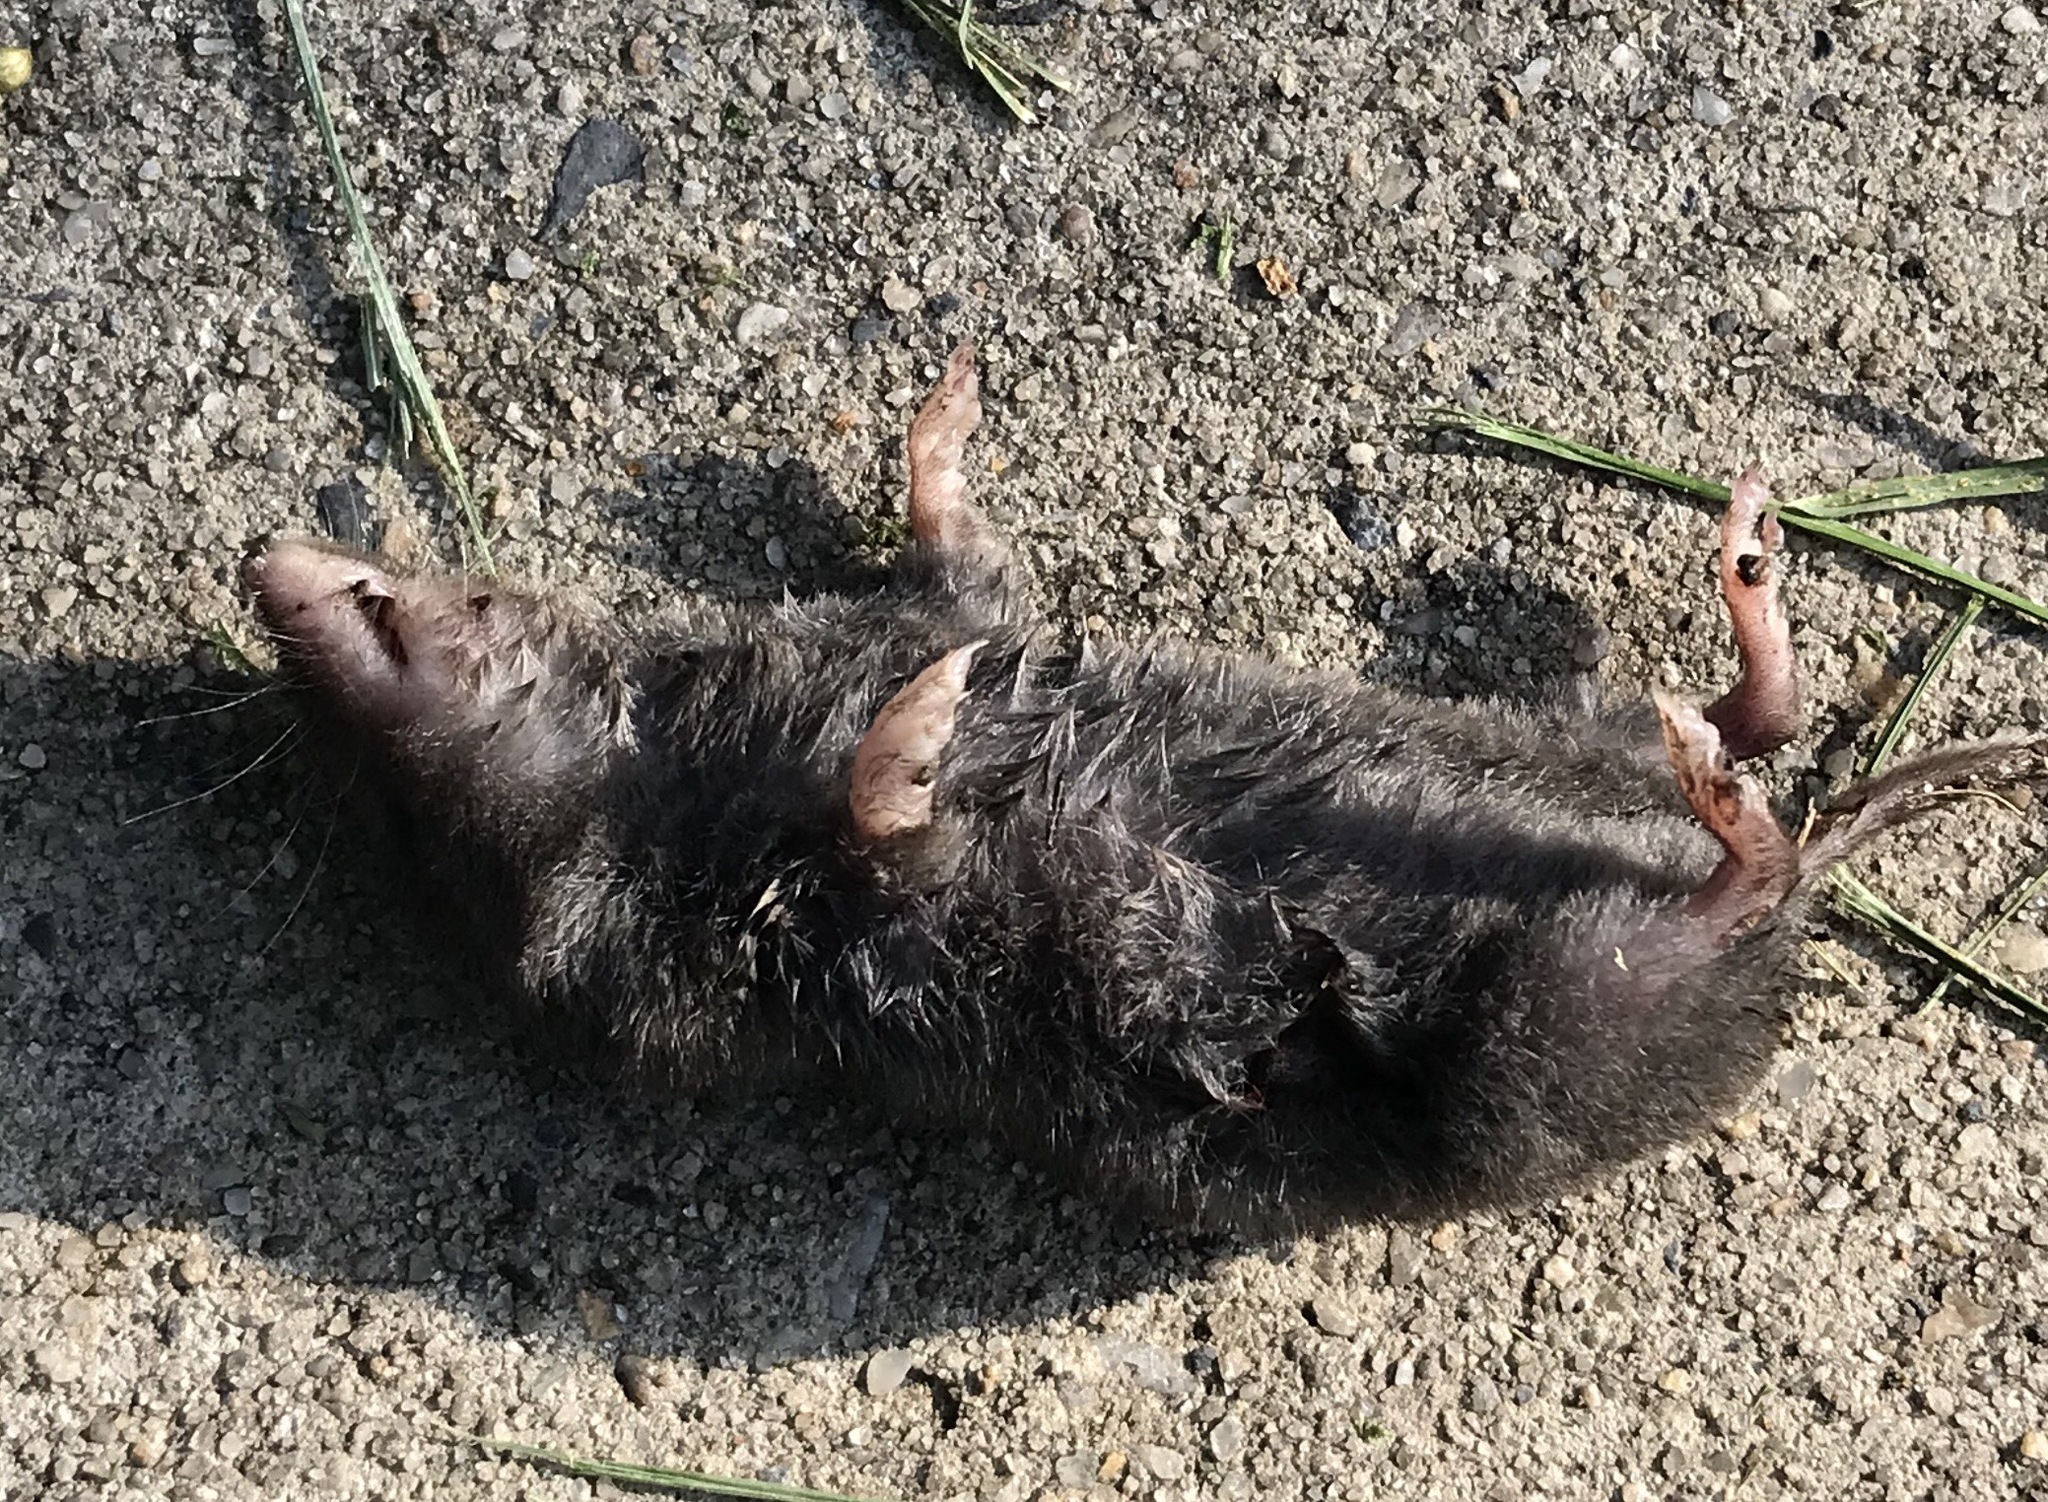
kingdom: Animalia
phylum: Chordata
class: Mammalia
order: Soricomorpha
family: Soricidae
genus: Blarina
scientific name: Blarina brevicauda
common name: Northern short-tailed shrew
